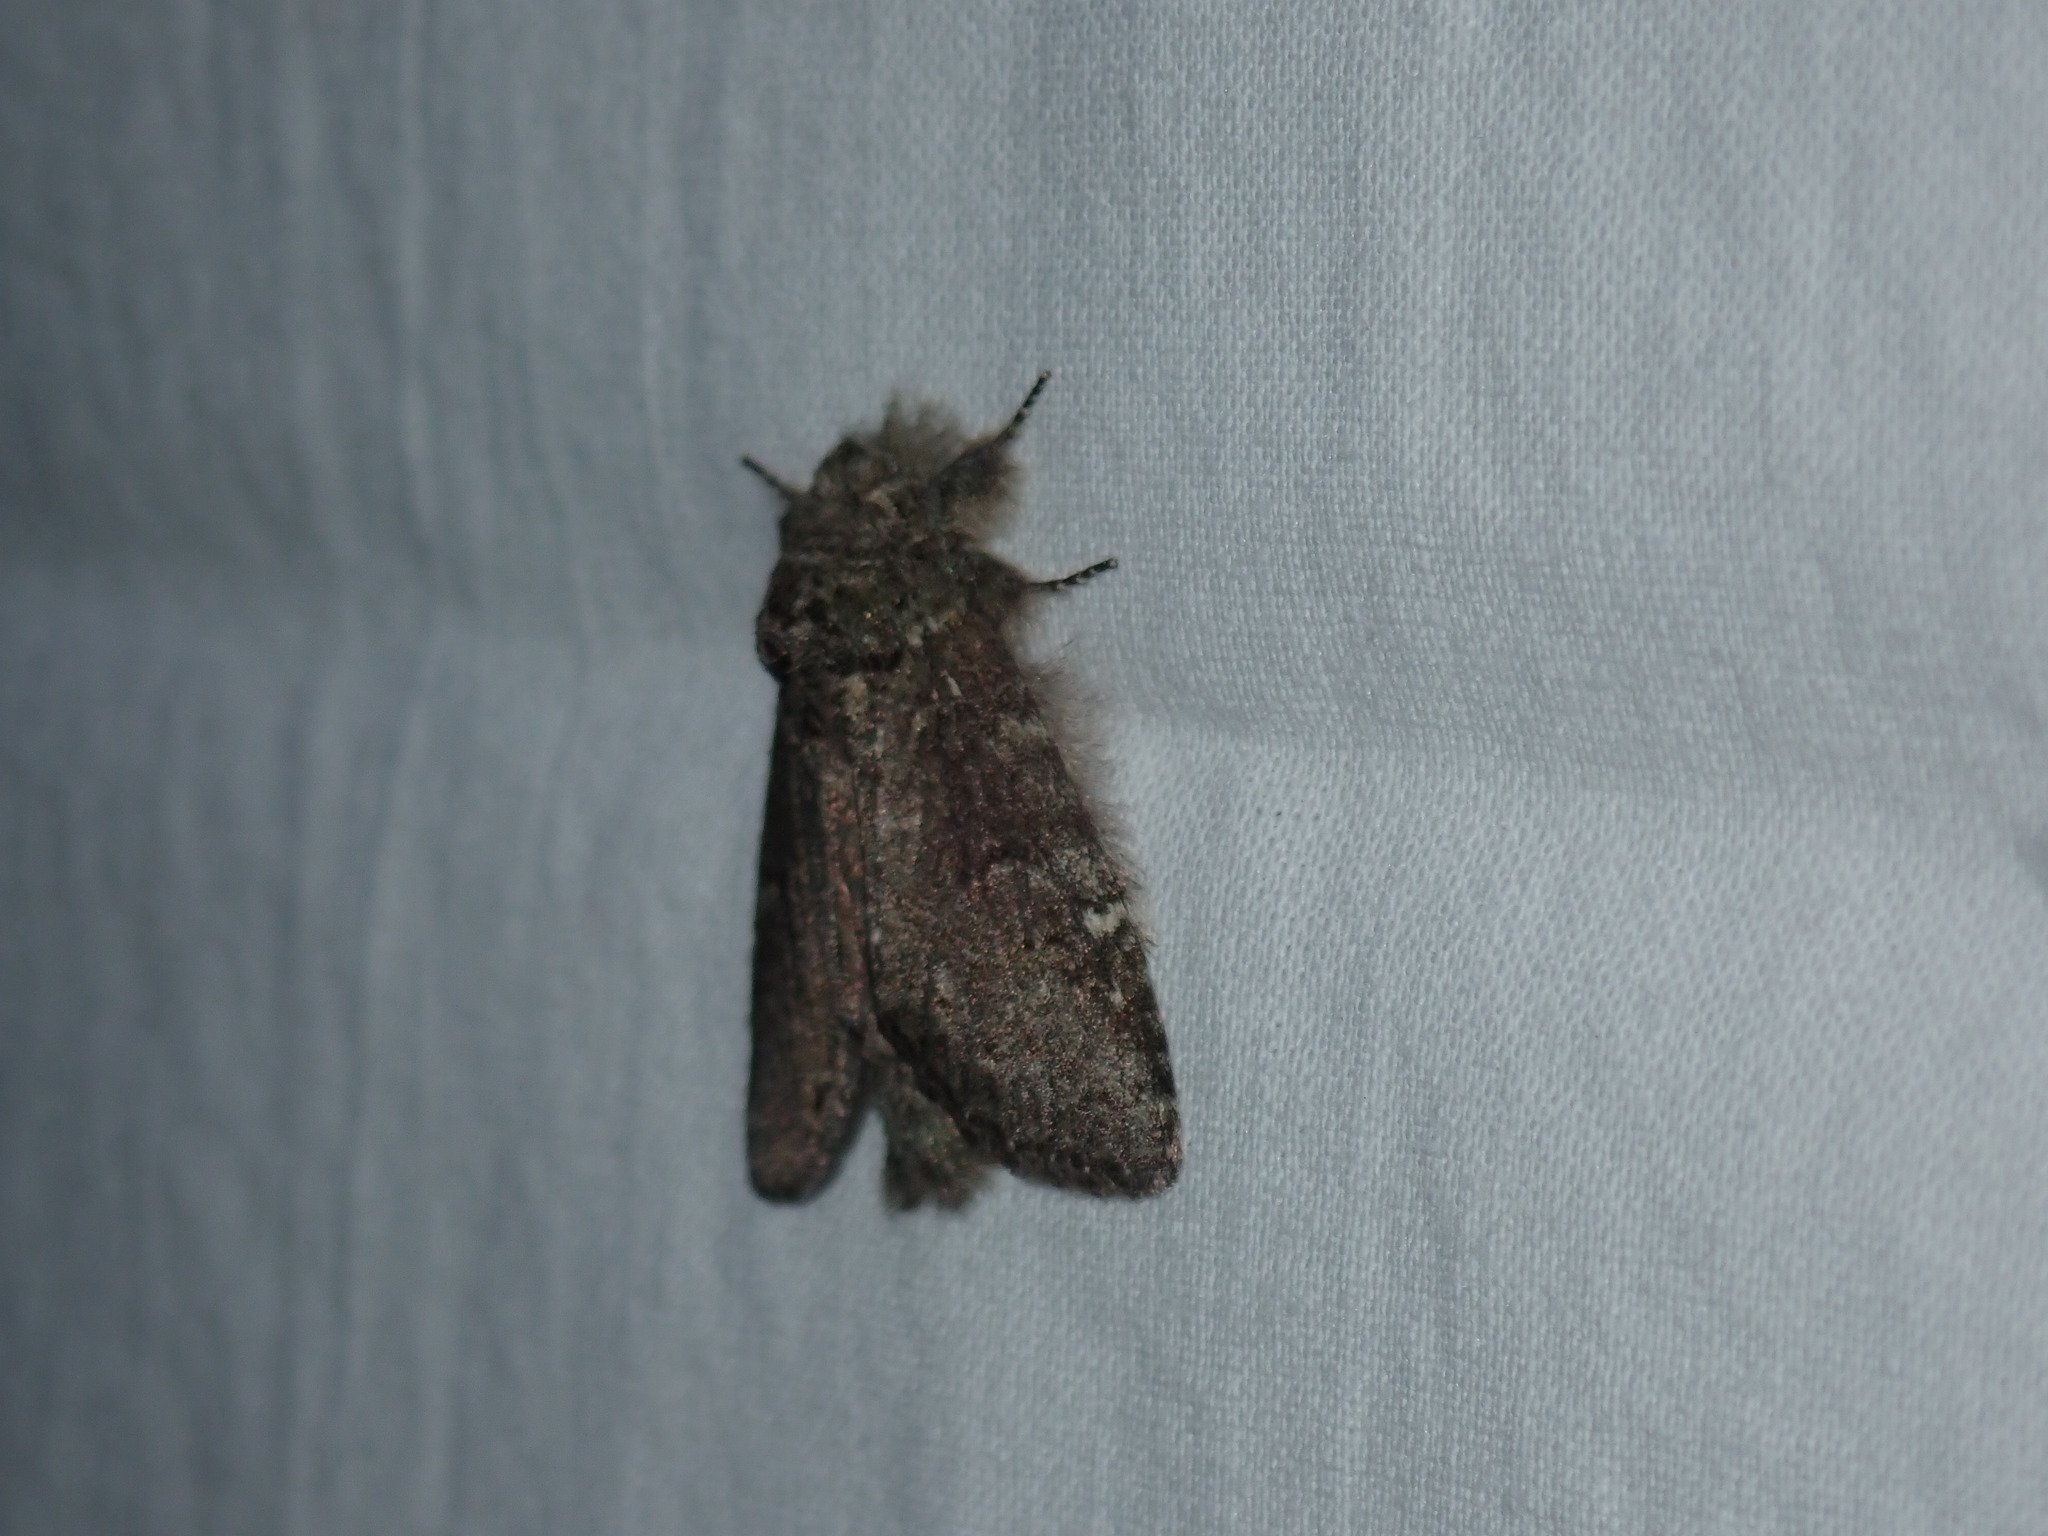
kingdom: Animalia
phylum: Arthropoda
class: Insecta
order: Lepidoptera
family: Notodontidae
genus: Disphragis
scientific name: Disphragis Cecrita guttivitta
